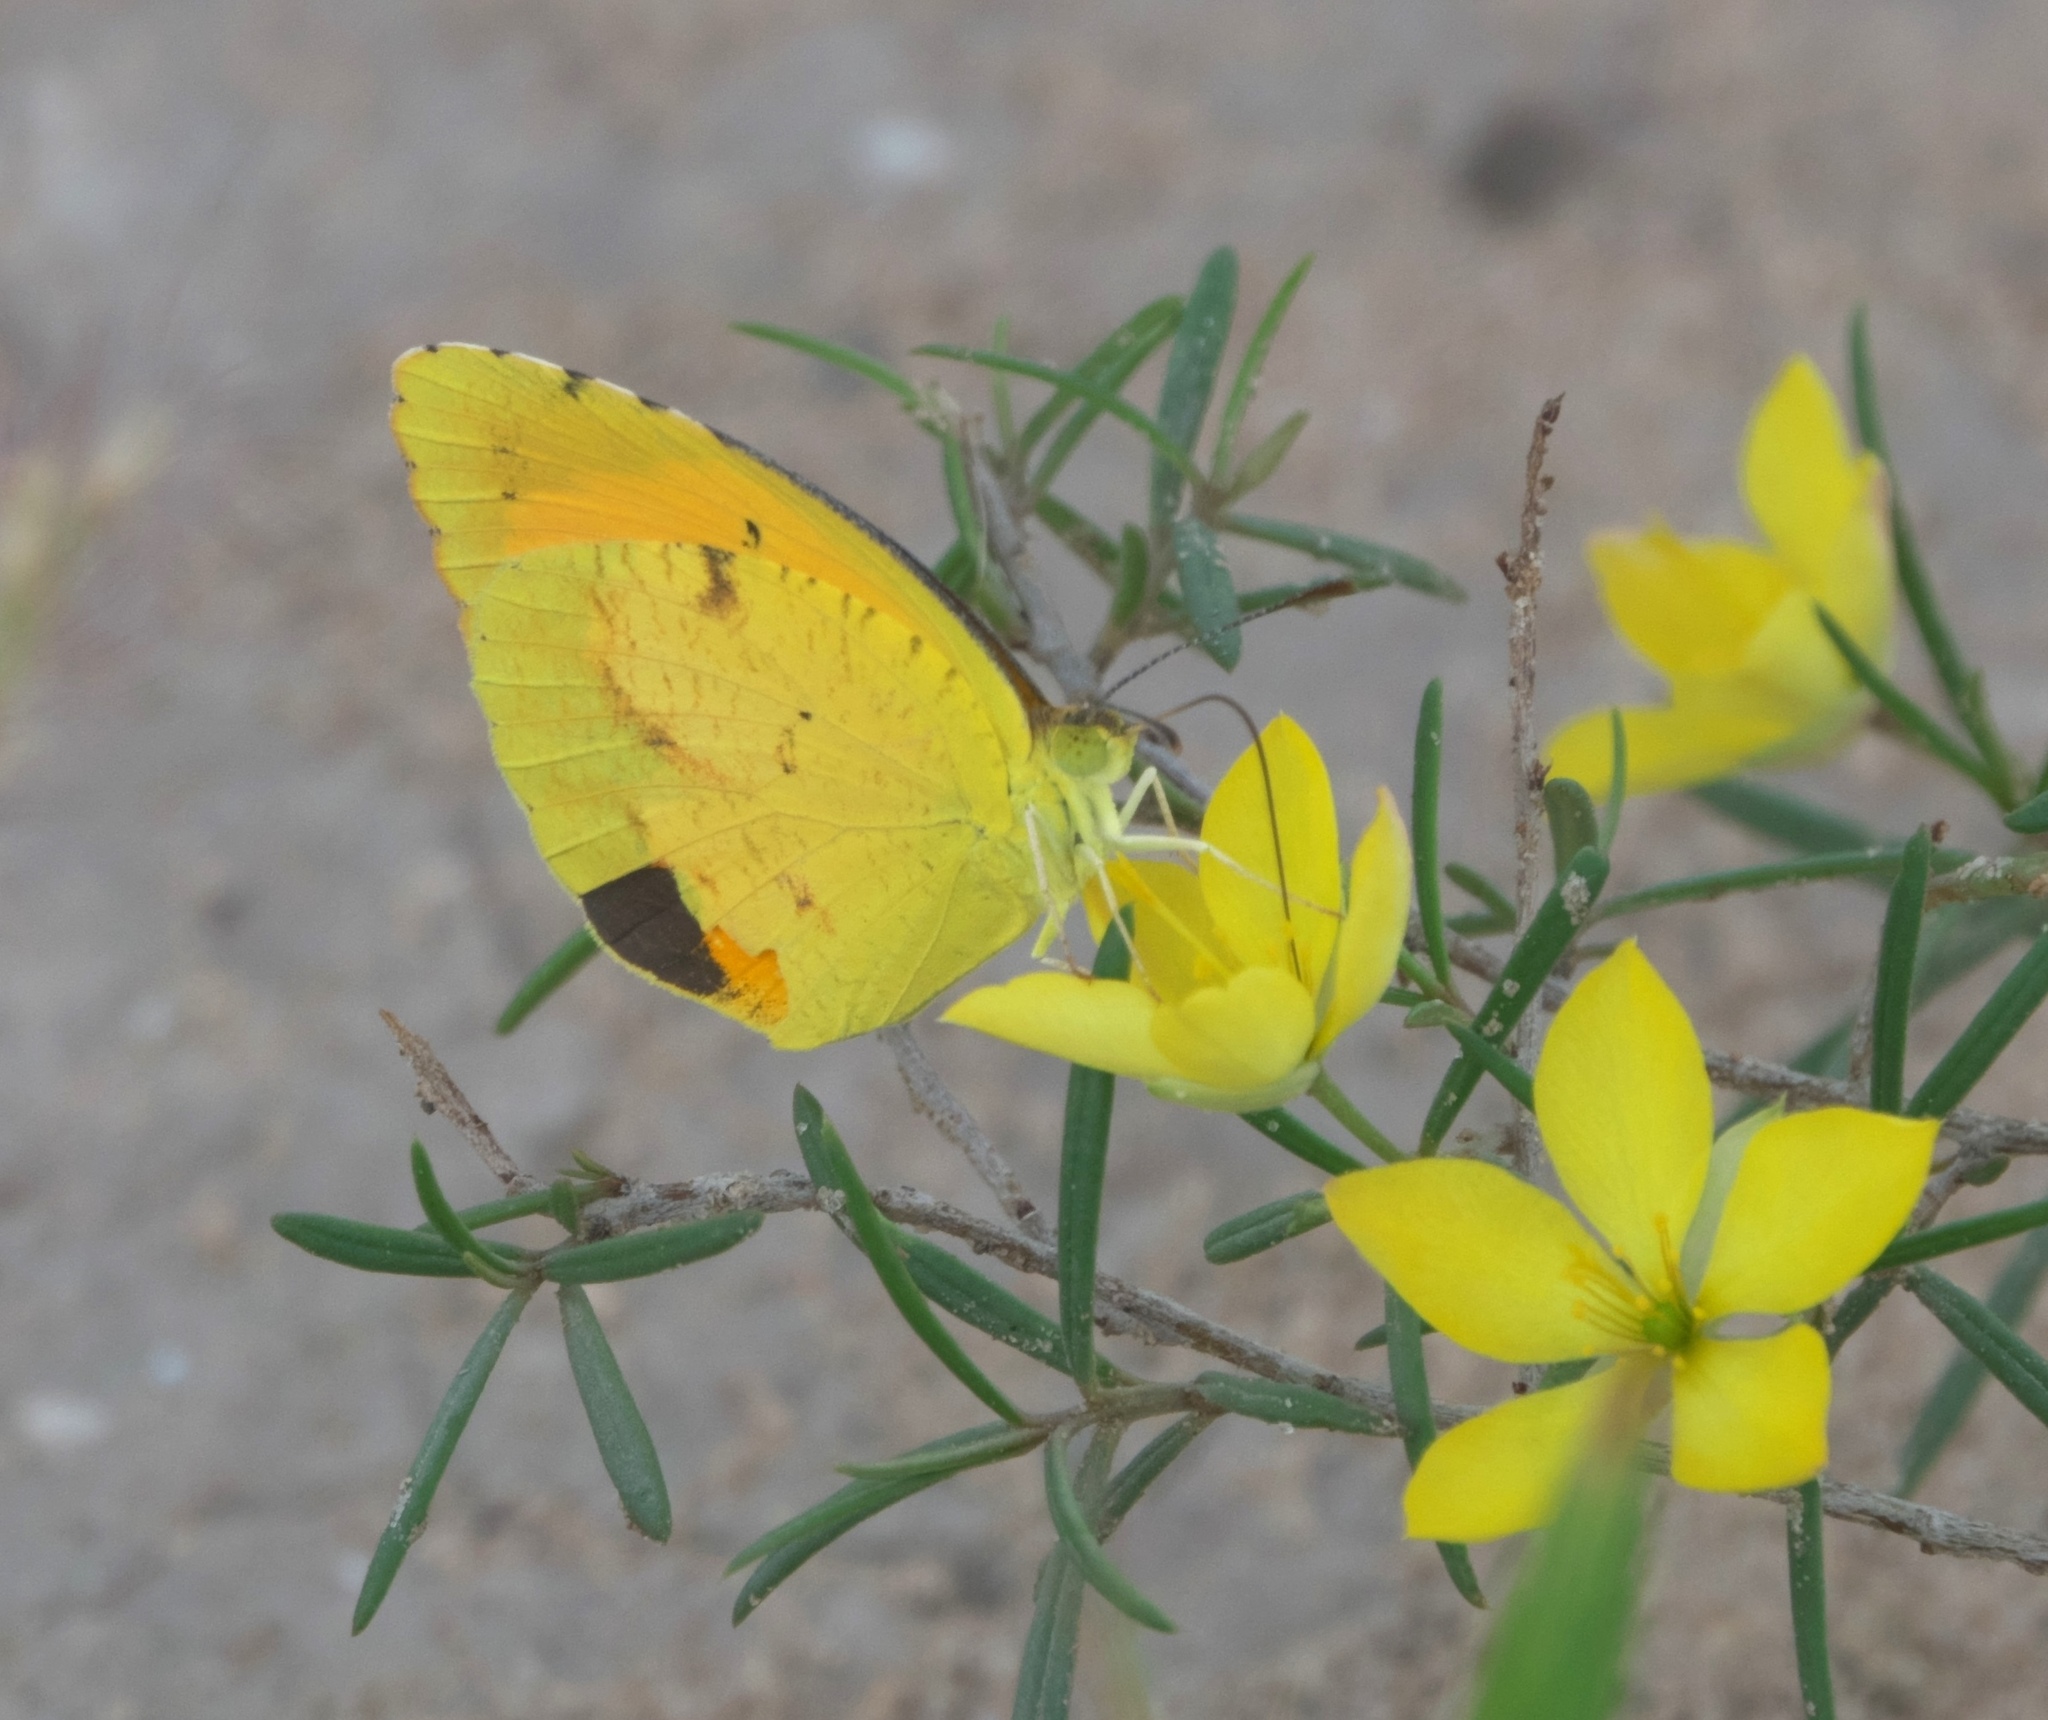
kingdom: Animalia
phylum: Arthropoda
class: Insecta
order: Lepidoptera
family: Pieridae
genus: Abaeis
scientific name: Abaeis nicippe
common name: Sleepy orange
